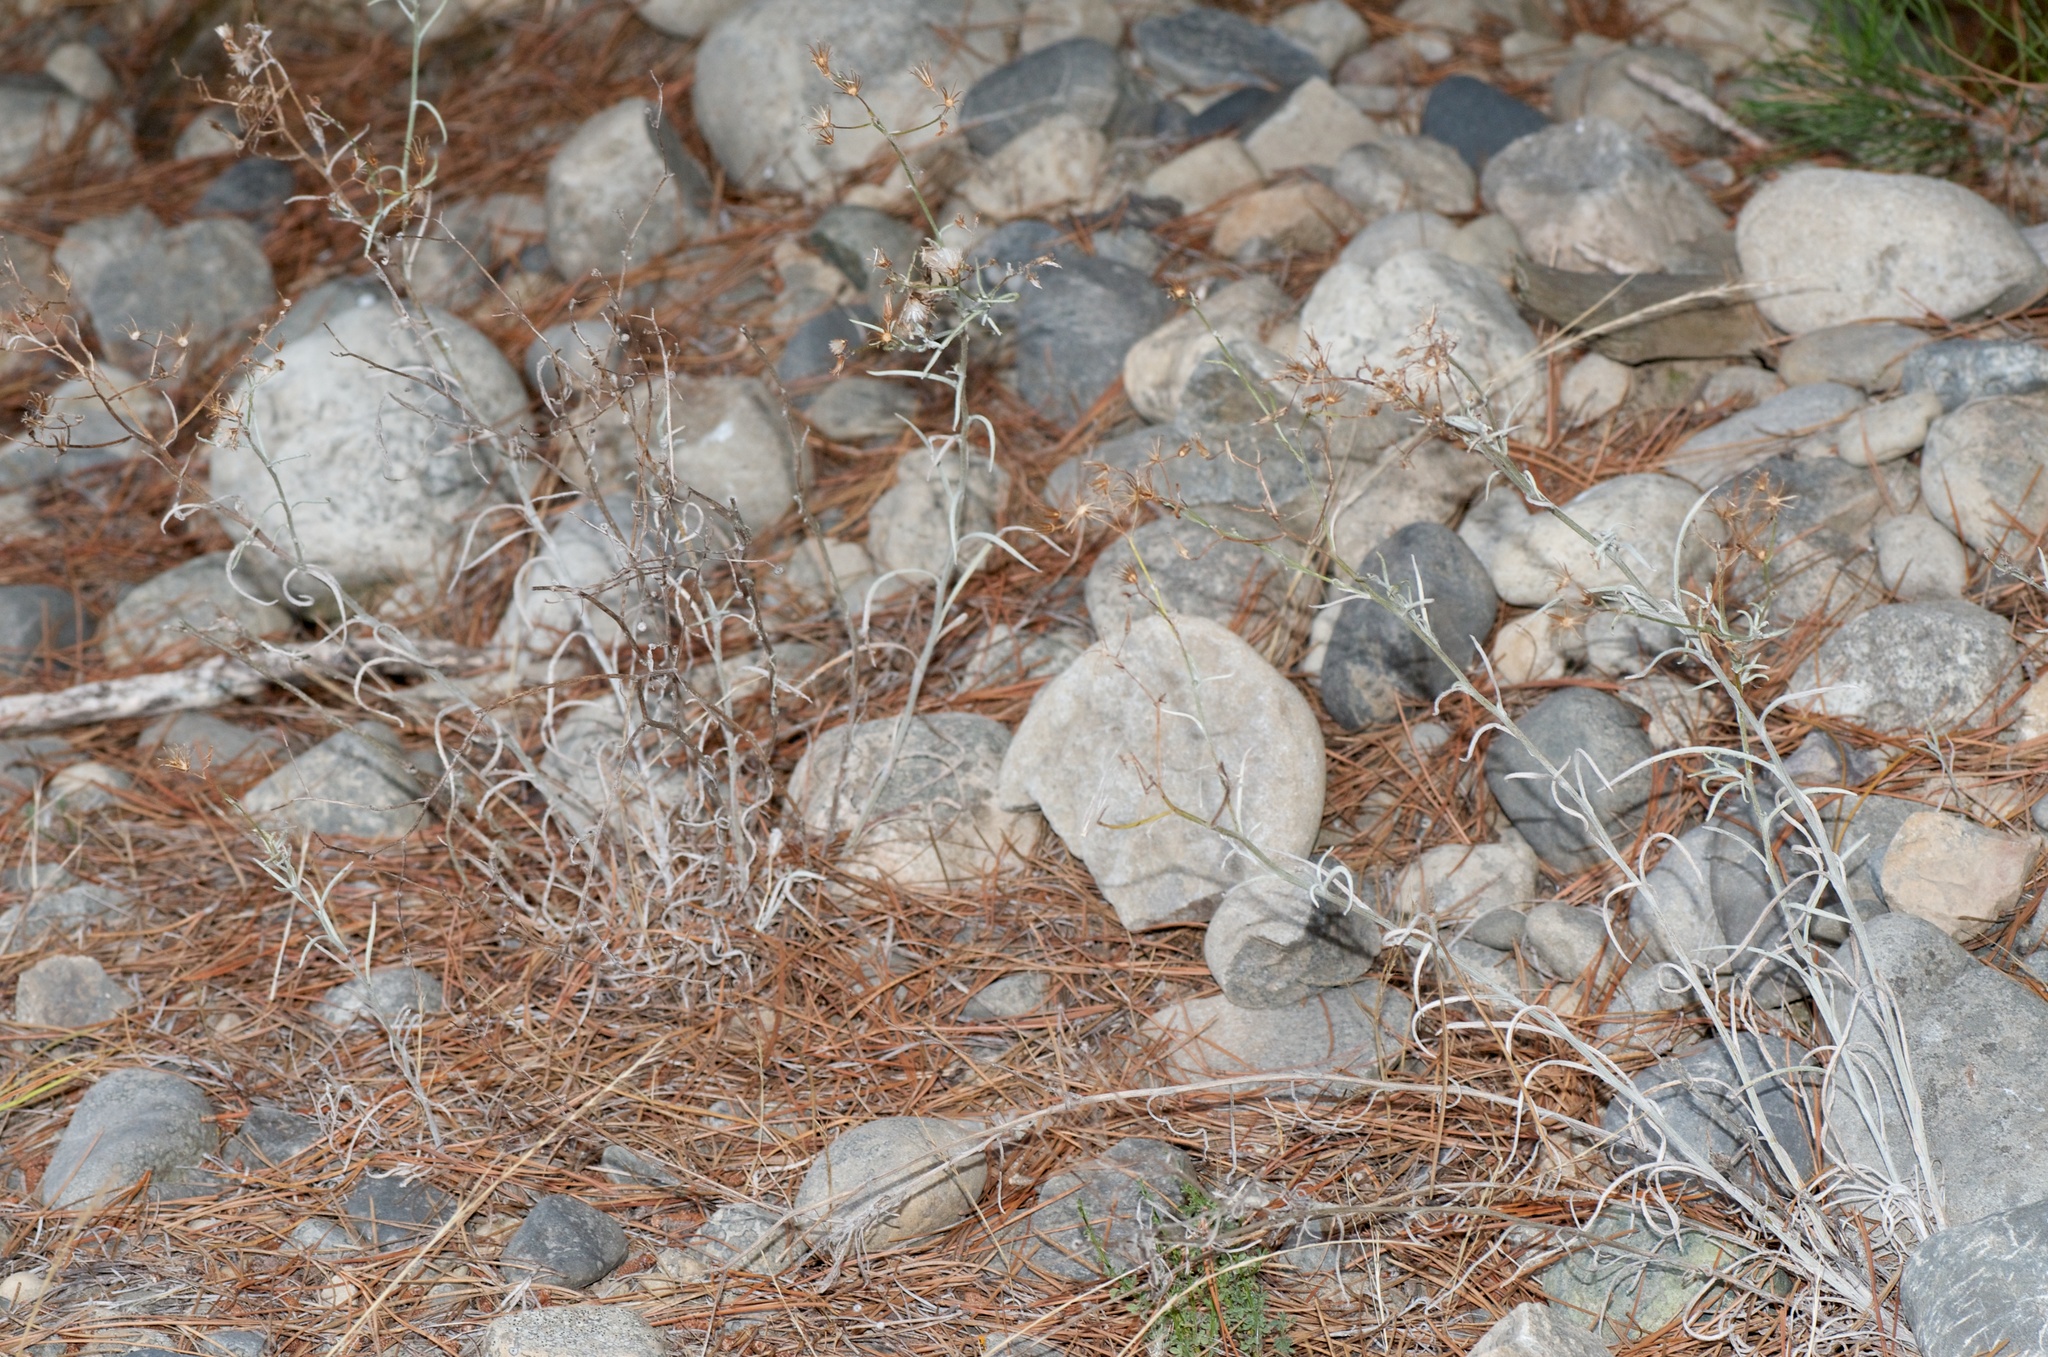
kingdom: Plantae
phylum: Tracheophyta
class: Magnoliopsida
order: Asterales
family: Asteraceae
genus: Senecio
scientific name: Senecio quadridentatus
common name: Cotton fireweed
